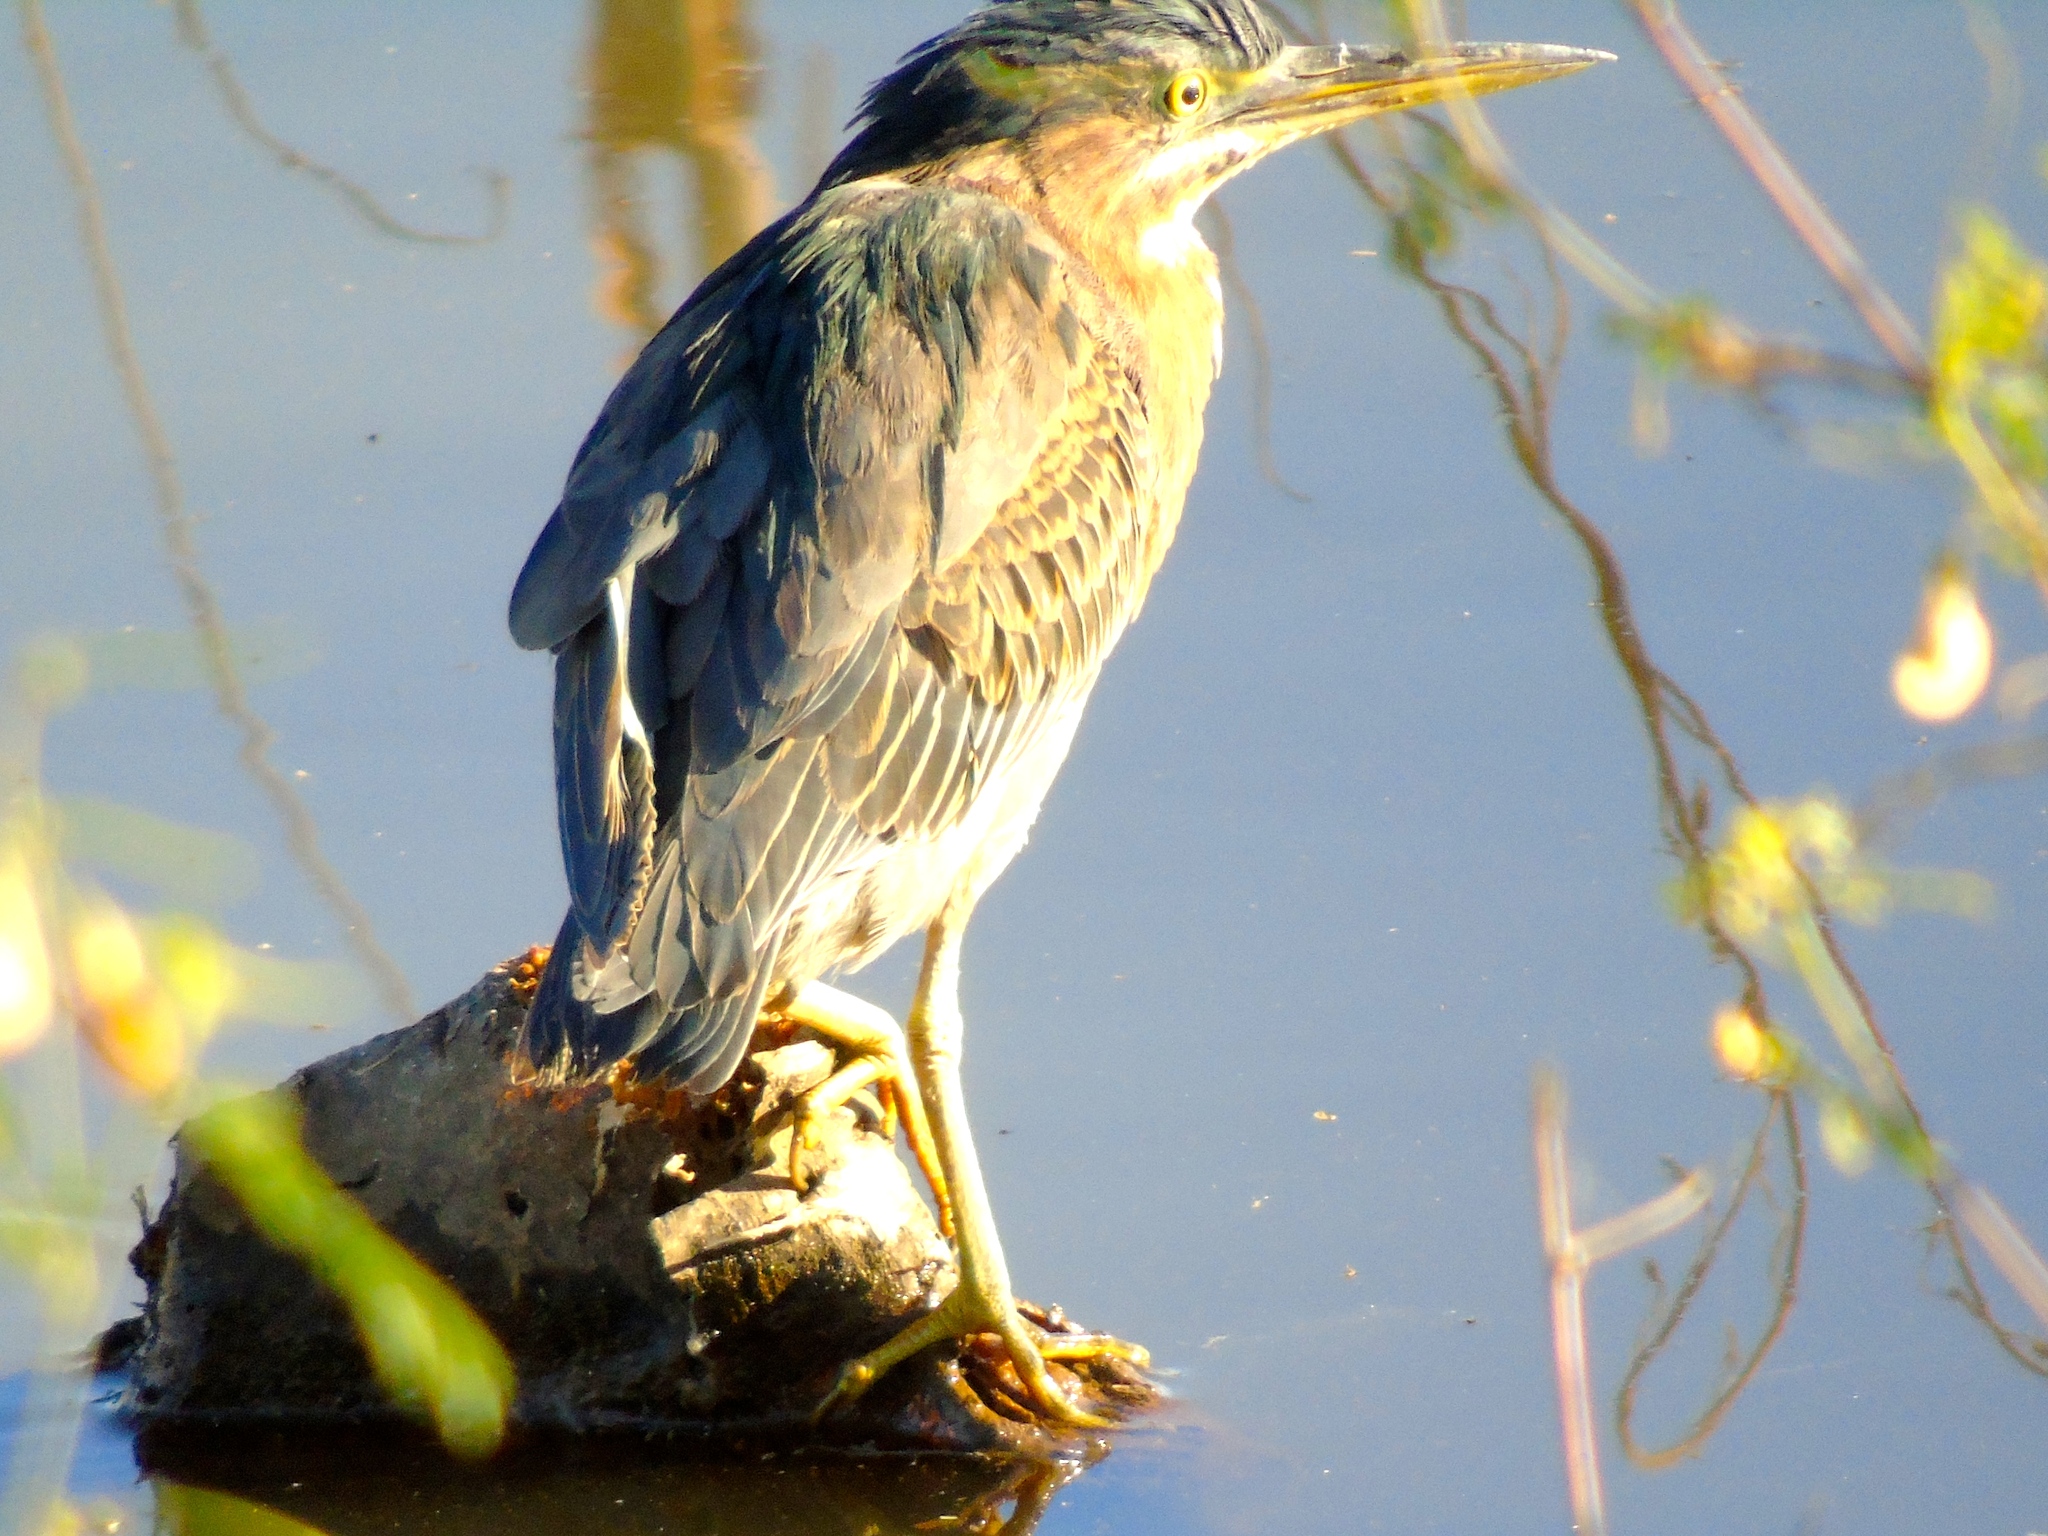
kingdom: Animalia
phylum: Chordata
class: Aves
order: Pelecaniformes
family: Ardeidae
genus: Butorides
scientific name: Butorides virescens
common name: Green heron
